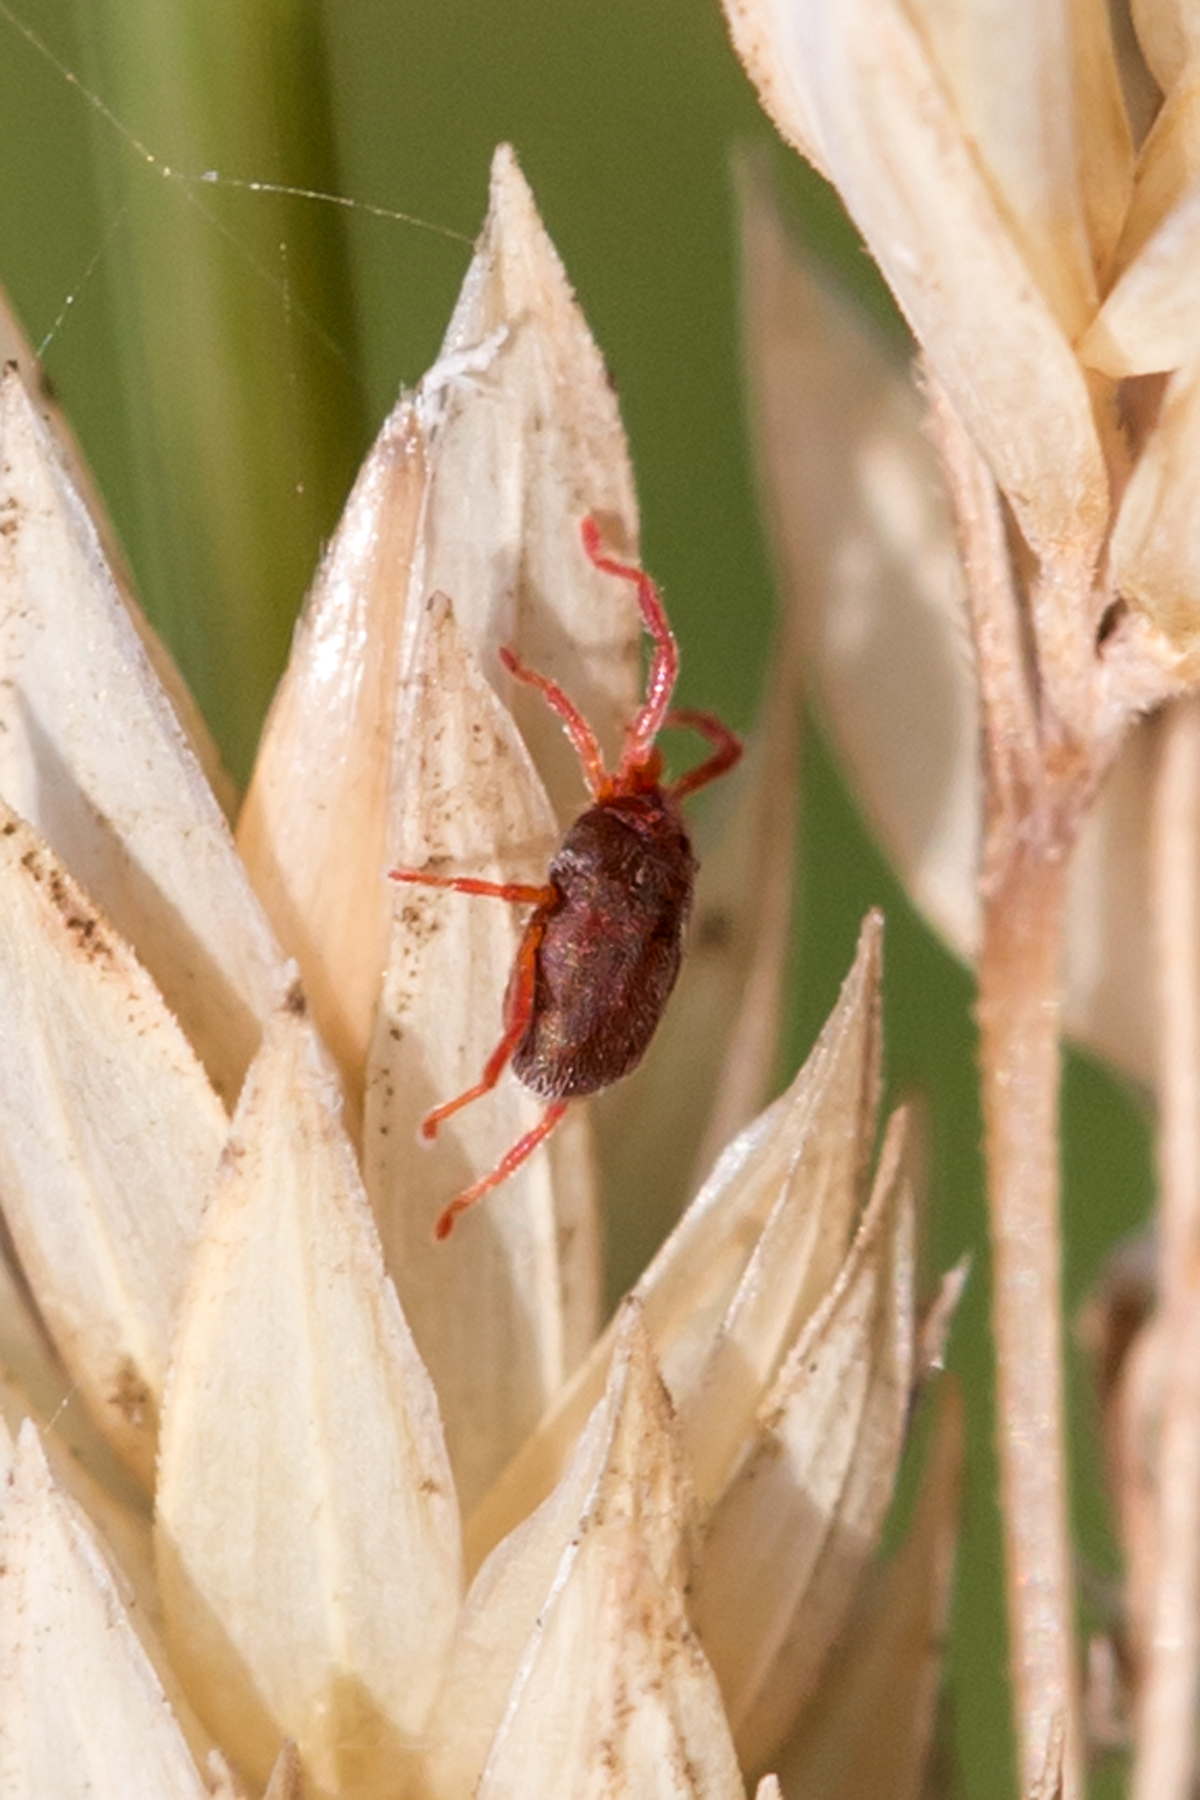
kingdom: Animalia
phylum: Arthropoda
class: Arachnida
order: Trombidiformes
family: Erythraeidae
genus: Balaustium
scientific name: Balaustium
